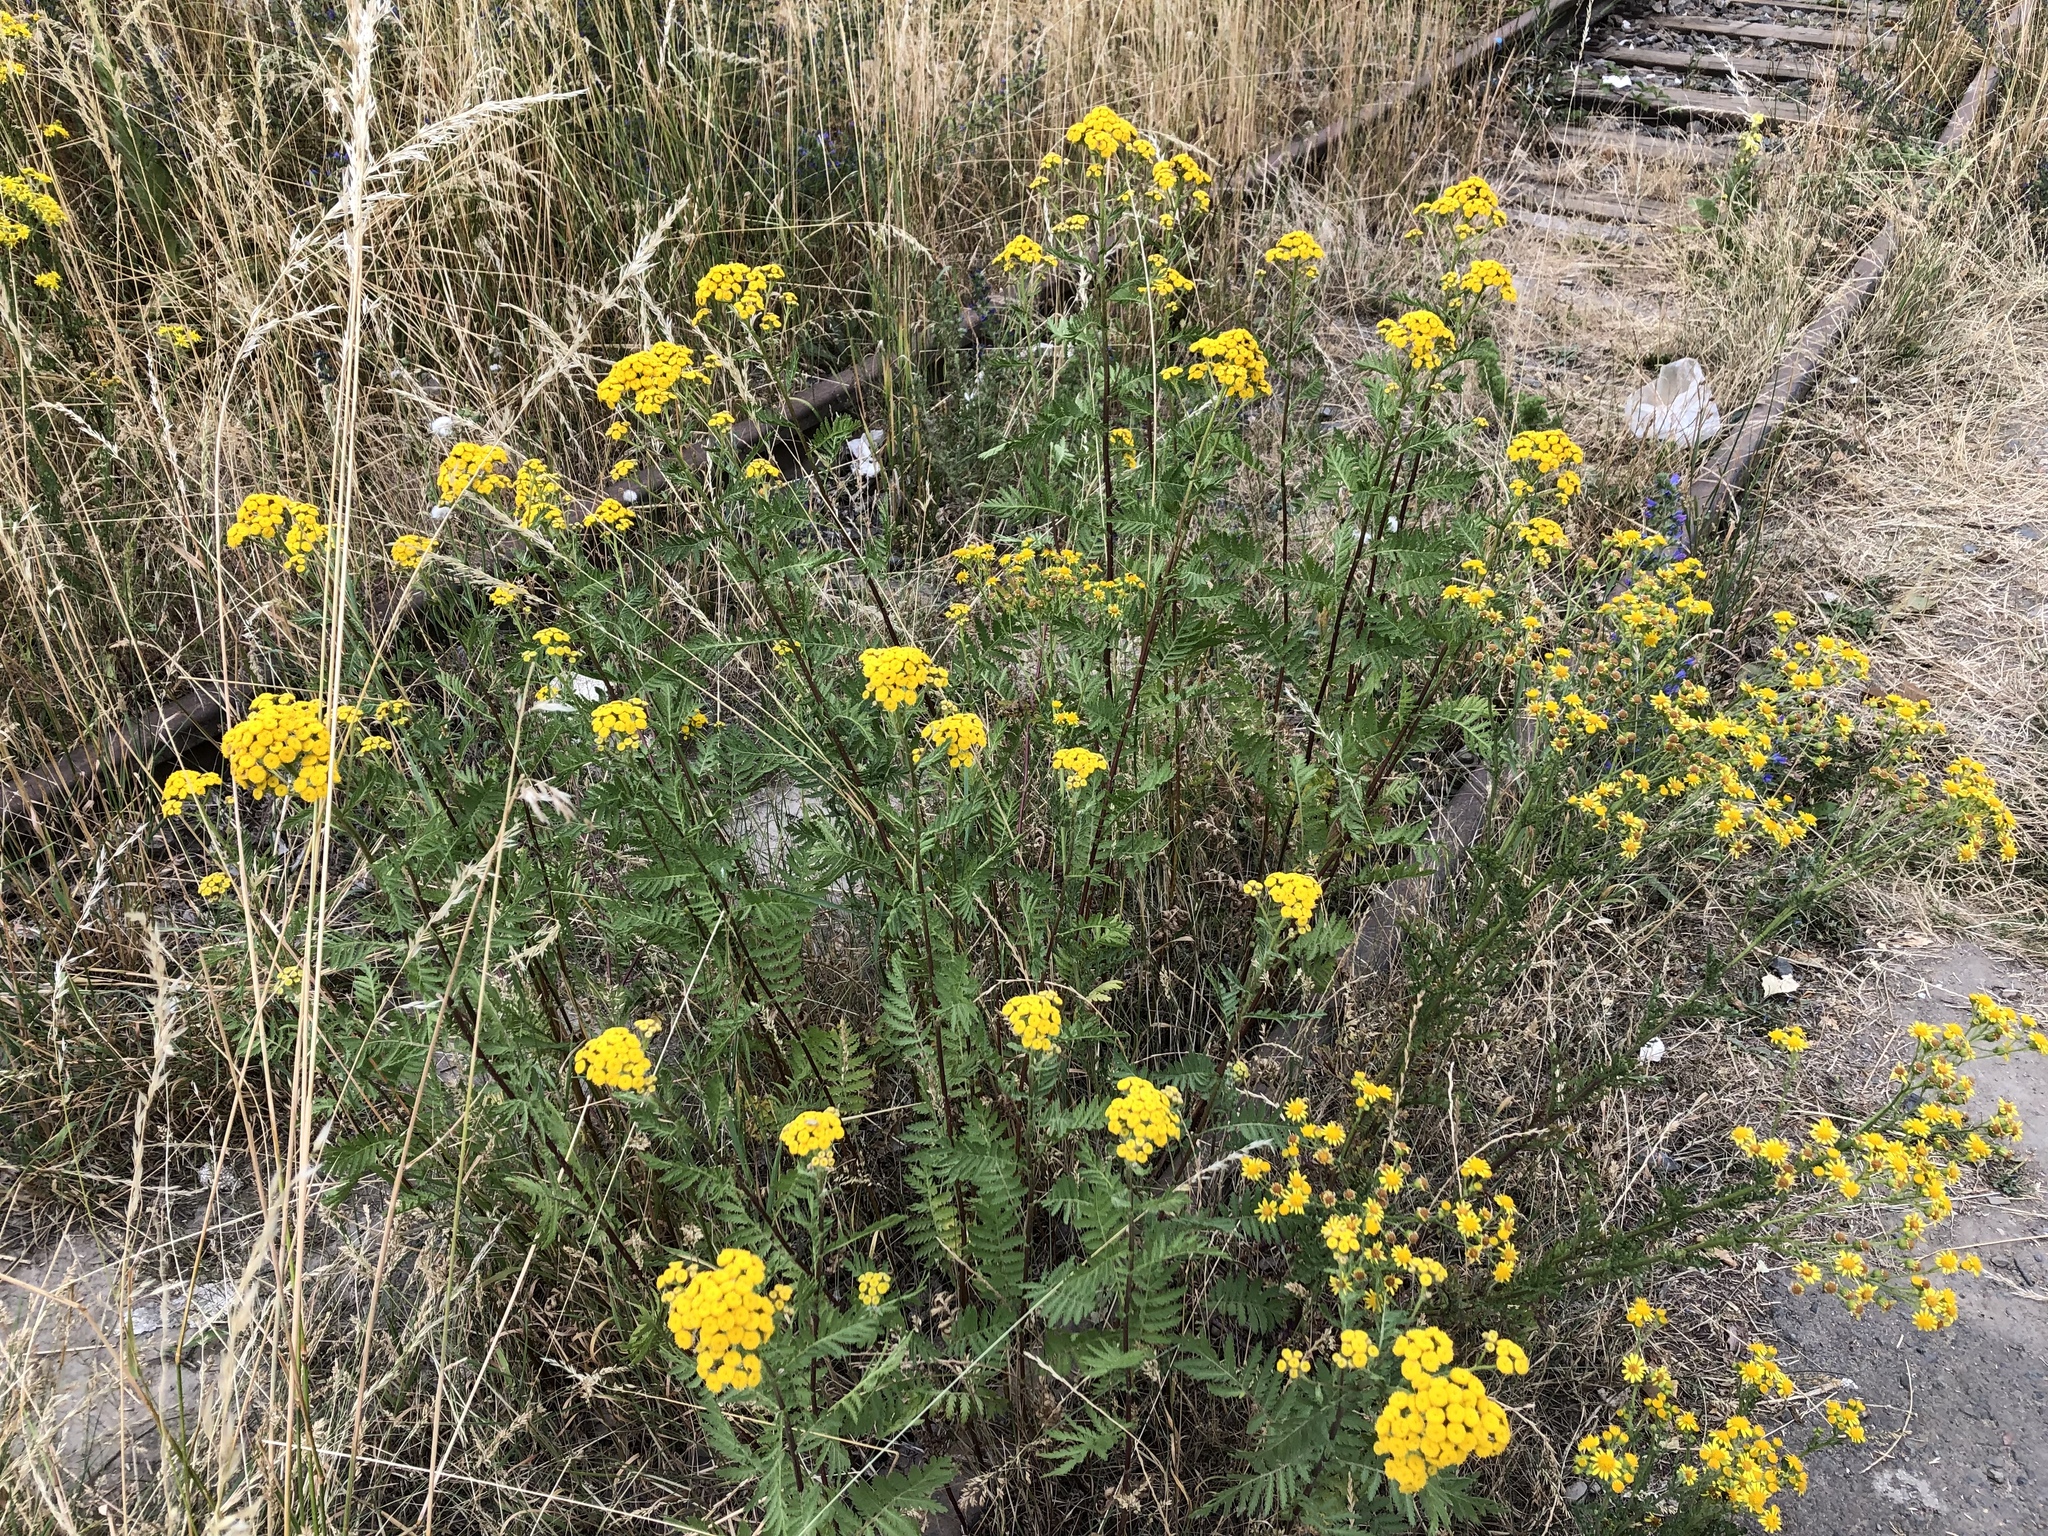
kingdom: Plantae
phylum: Tracheophyta
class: Magnoliopsida
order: Asterales
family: Asteraceae
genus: Tanacetum
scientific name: Tanacetum vulgare
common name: Common tansy
